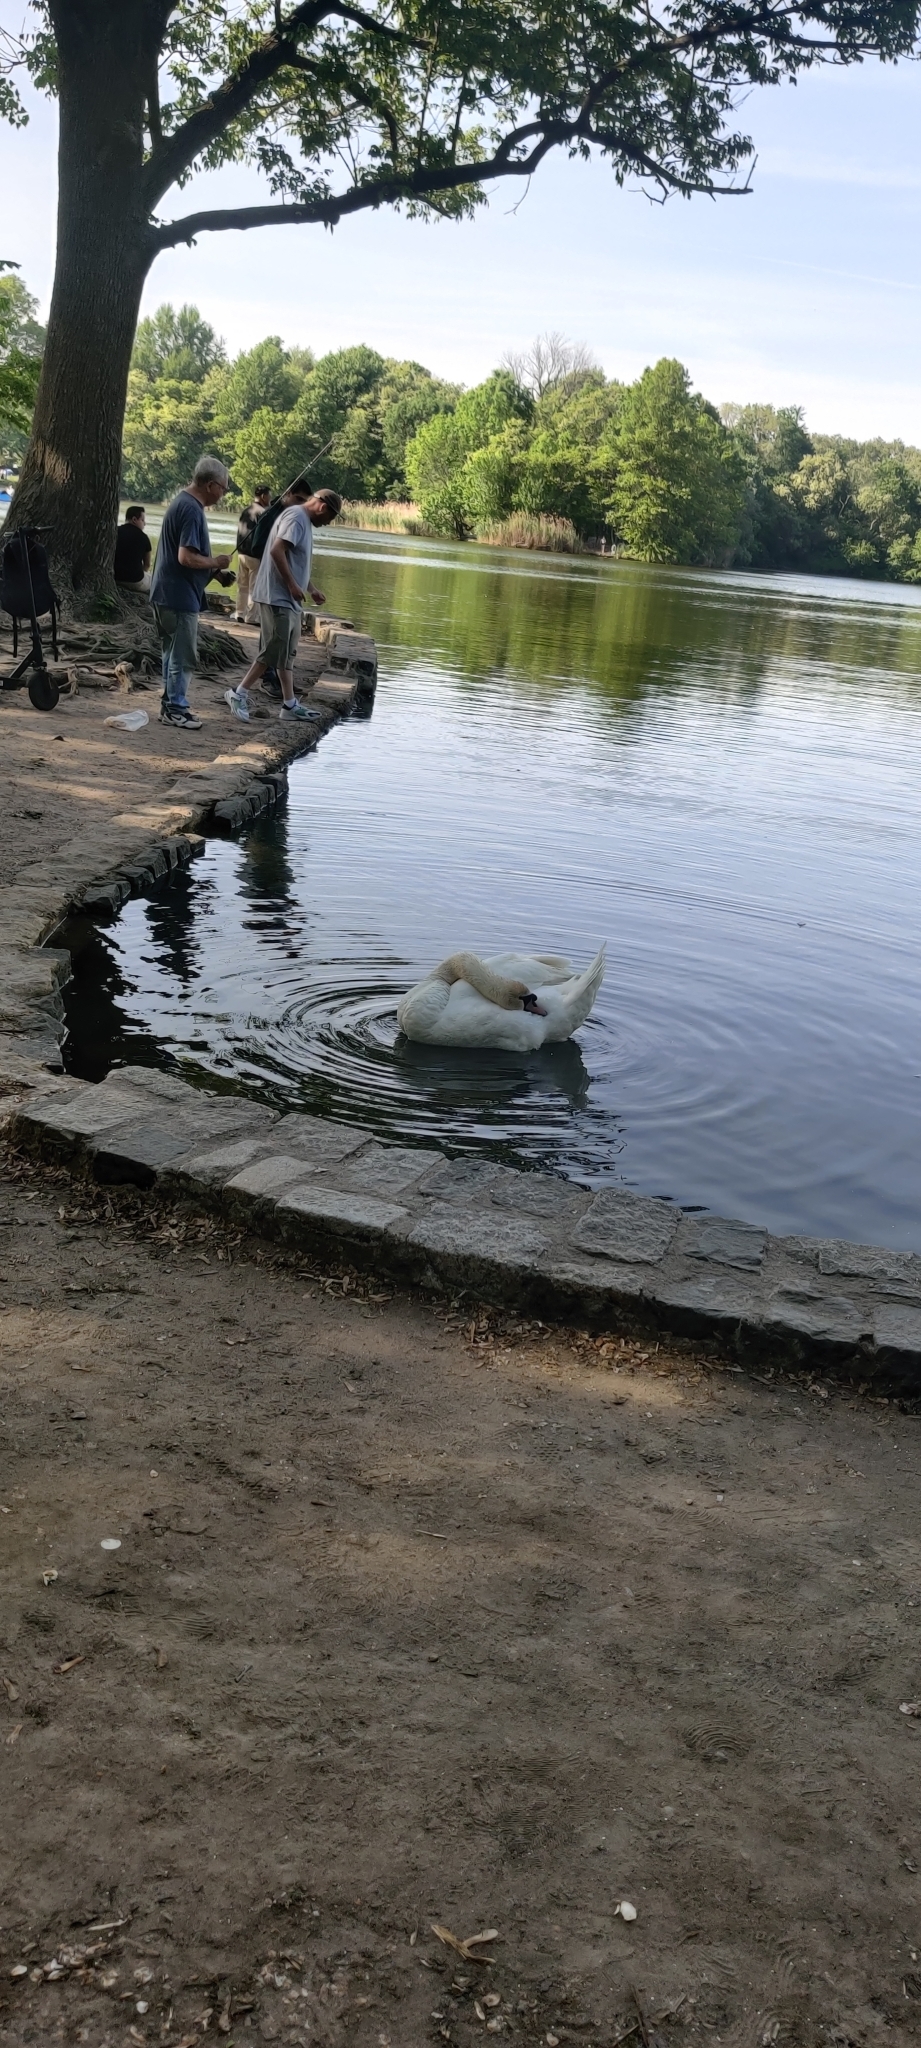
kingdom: Animalia
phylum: Chordata
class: Aves
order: Anseriformes
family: Anatidae
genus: Cygnus
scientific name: Cygnus olor
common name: Mute swan
